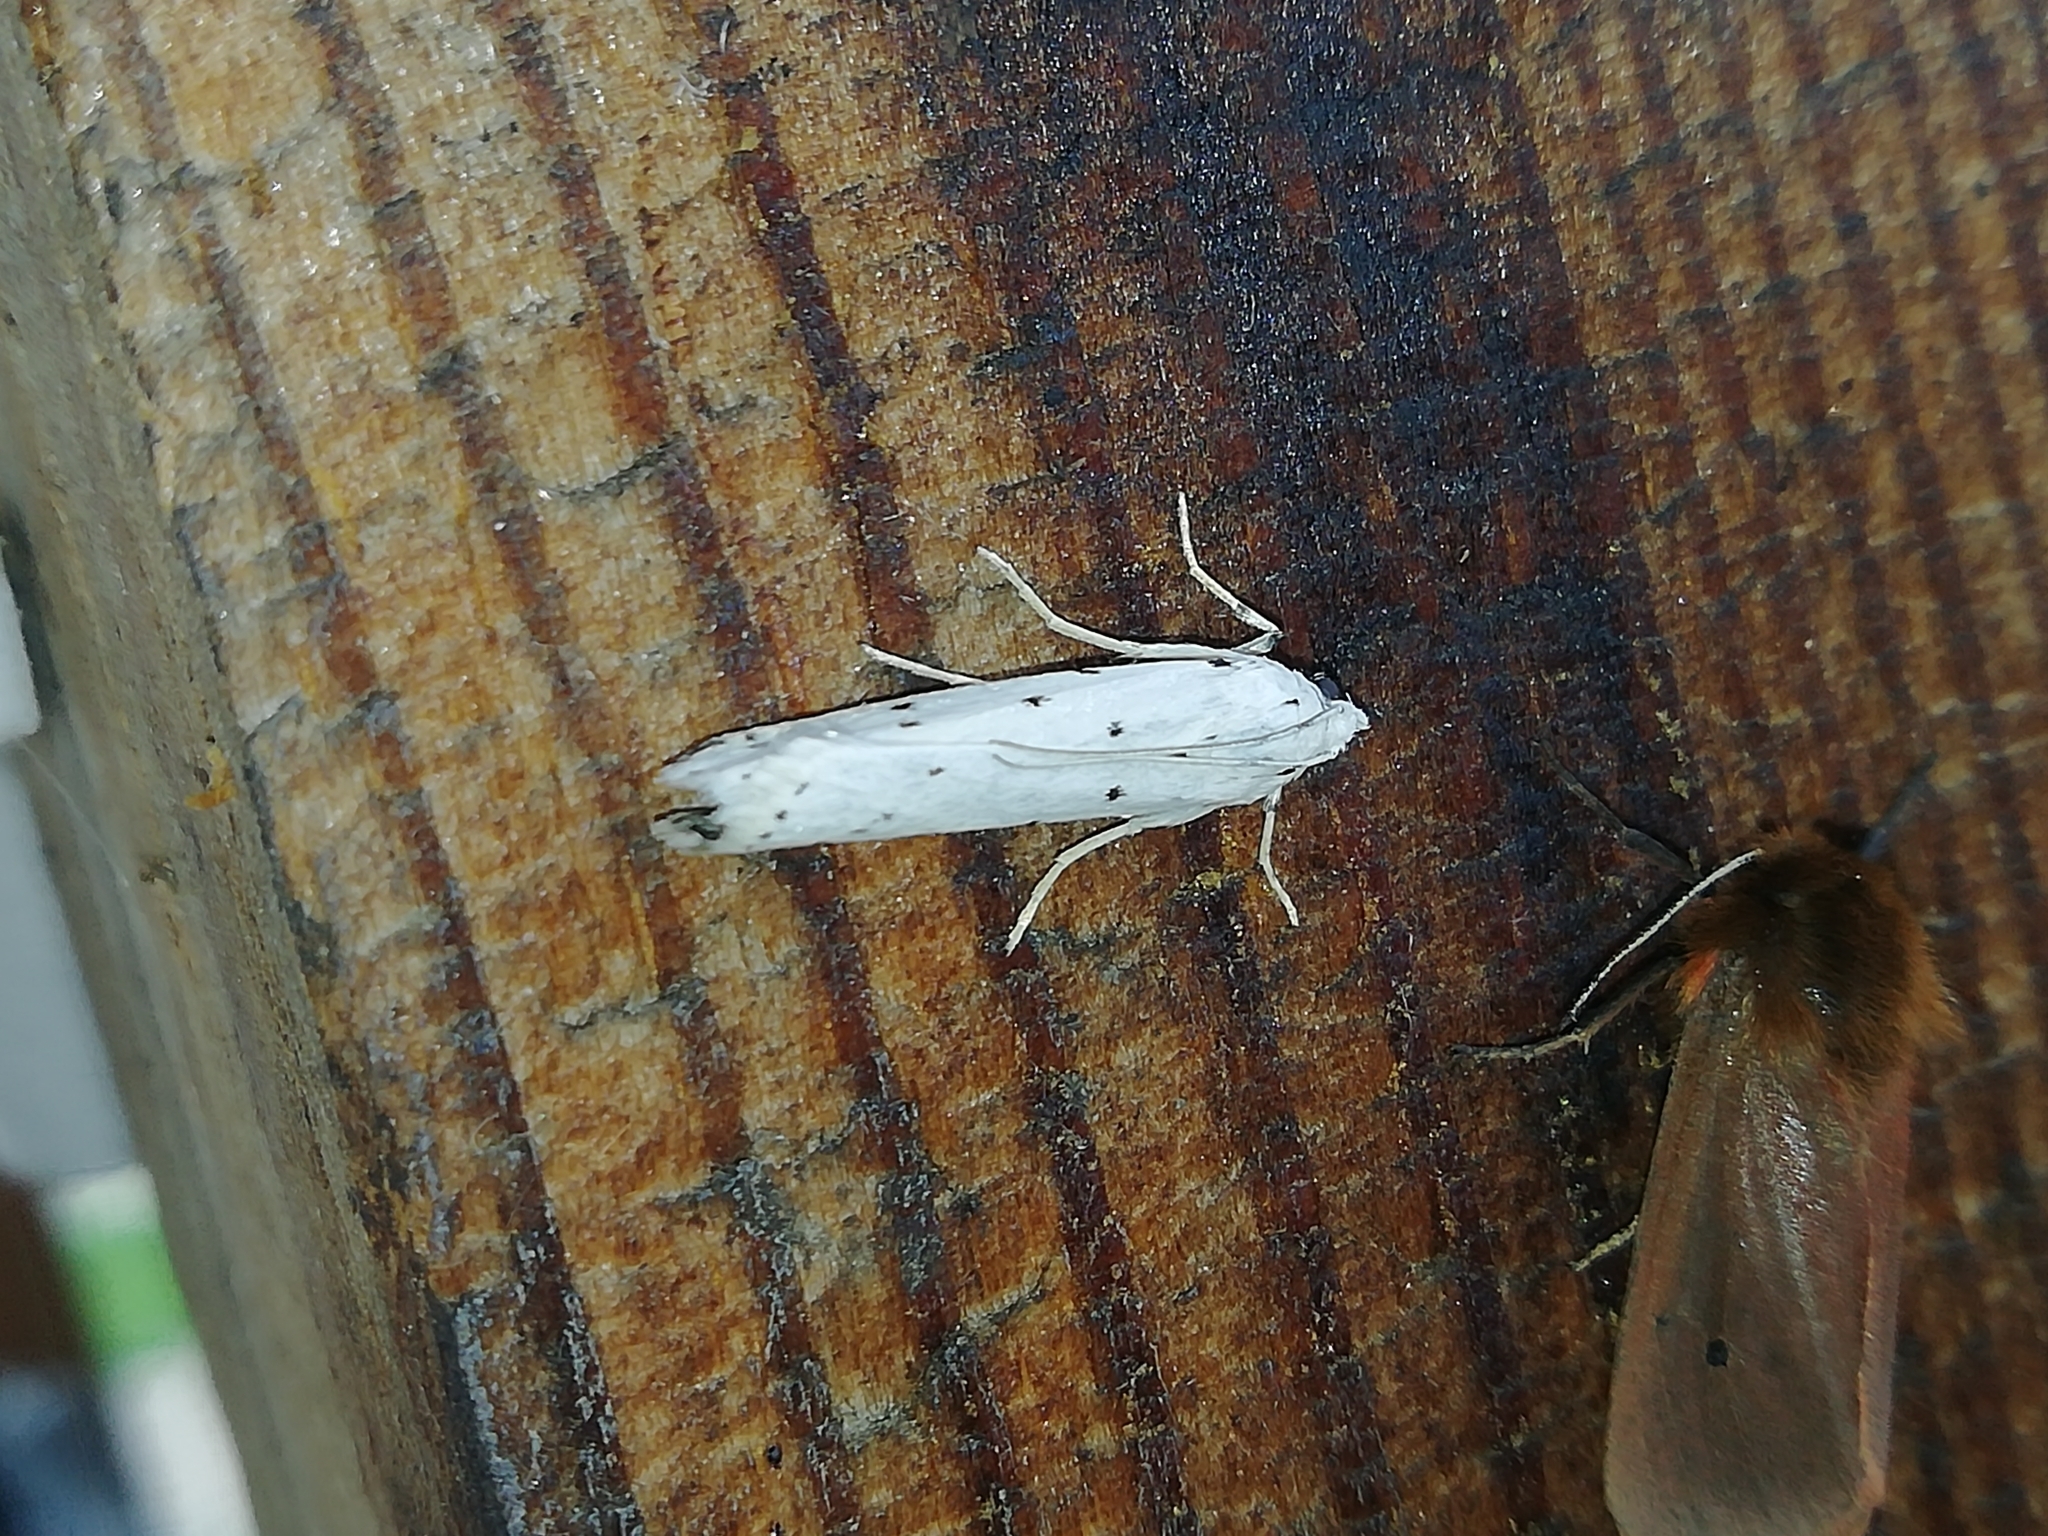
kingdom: Animalia
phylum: Arthropoda
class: Insecta
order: Lepidoptera
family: Pyralidae
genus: Myelois
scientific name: Myelois circumvoluta
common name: Thistle ermine
